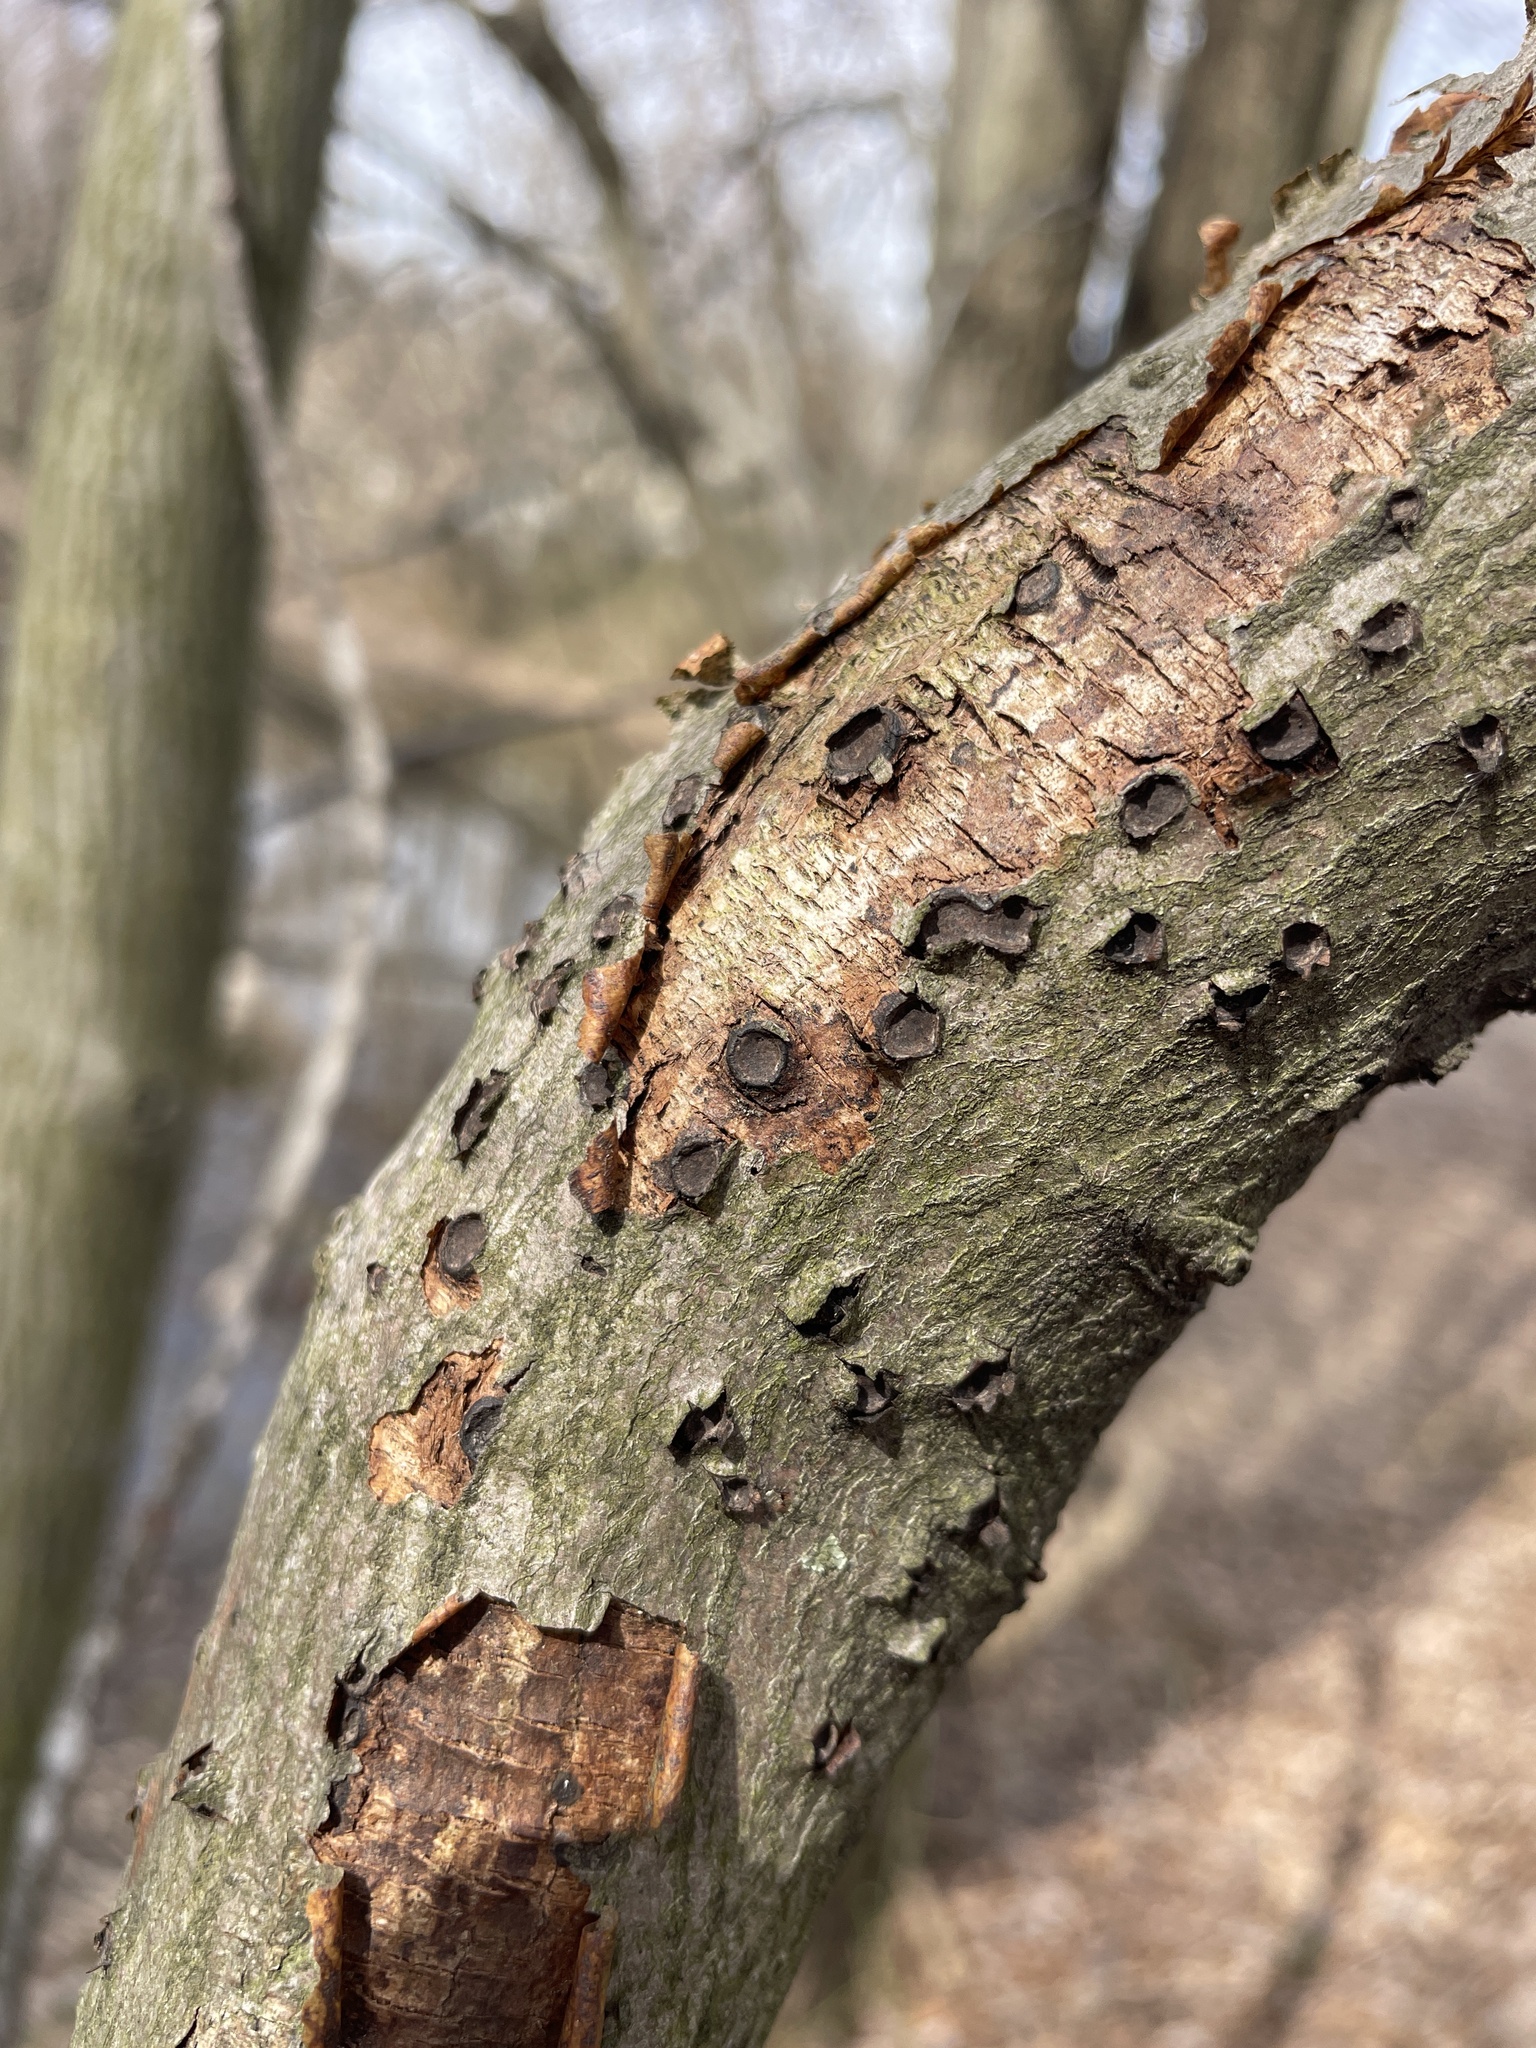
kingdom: Fungi
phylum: Ascomycota
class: Sordariomycetes
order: Xylariales
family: Graphostromataceae
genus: Biscogniauxia
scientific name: Biscogniauxia marginata
